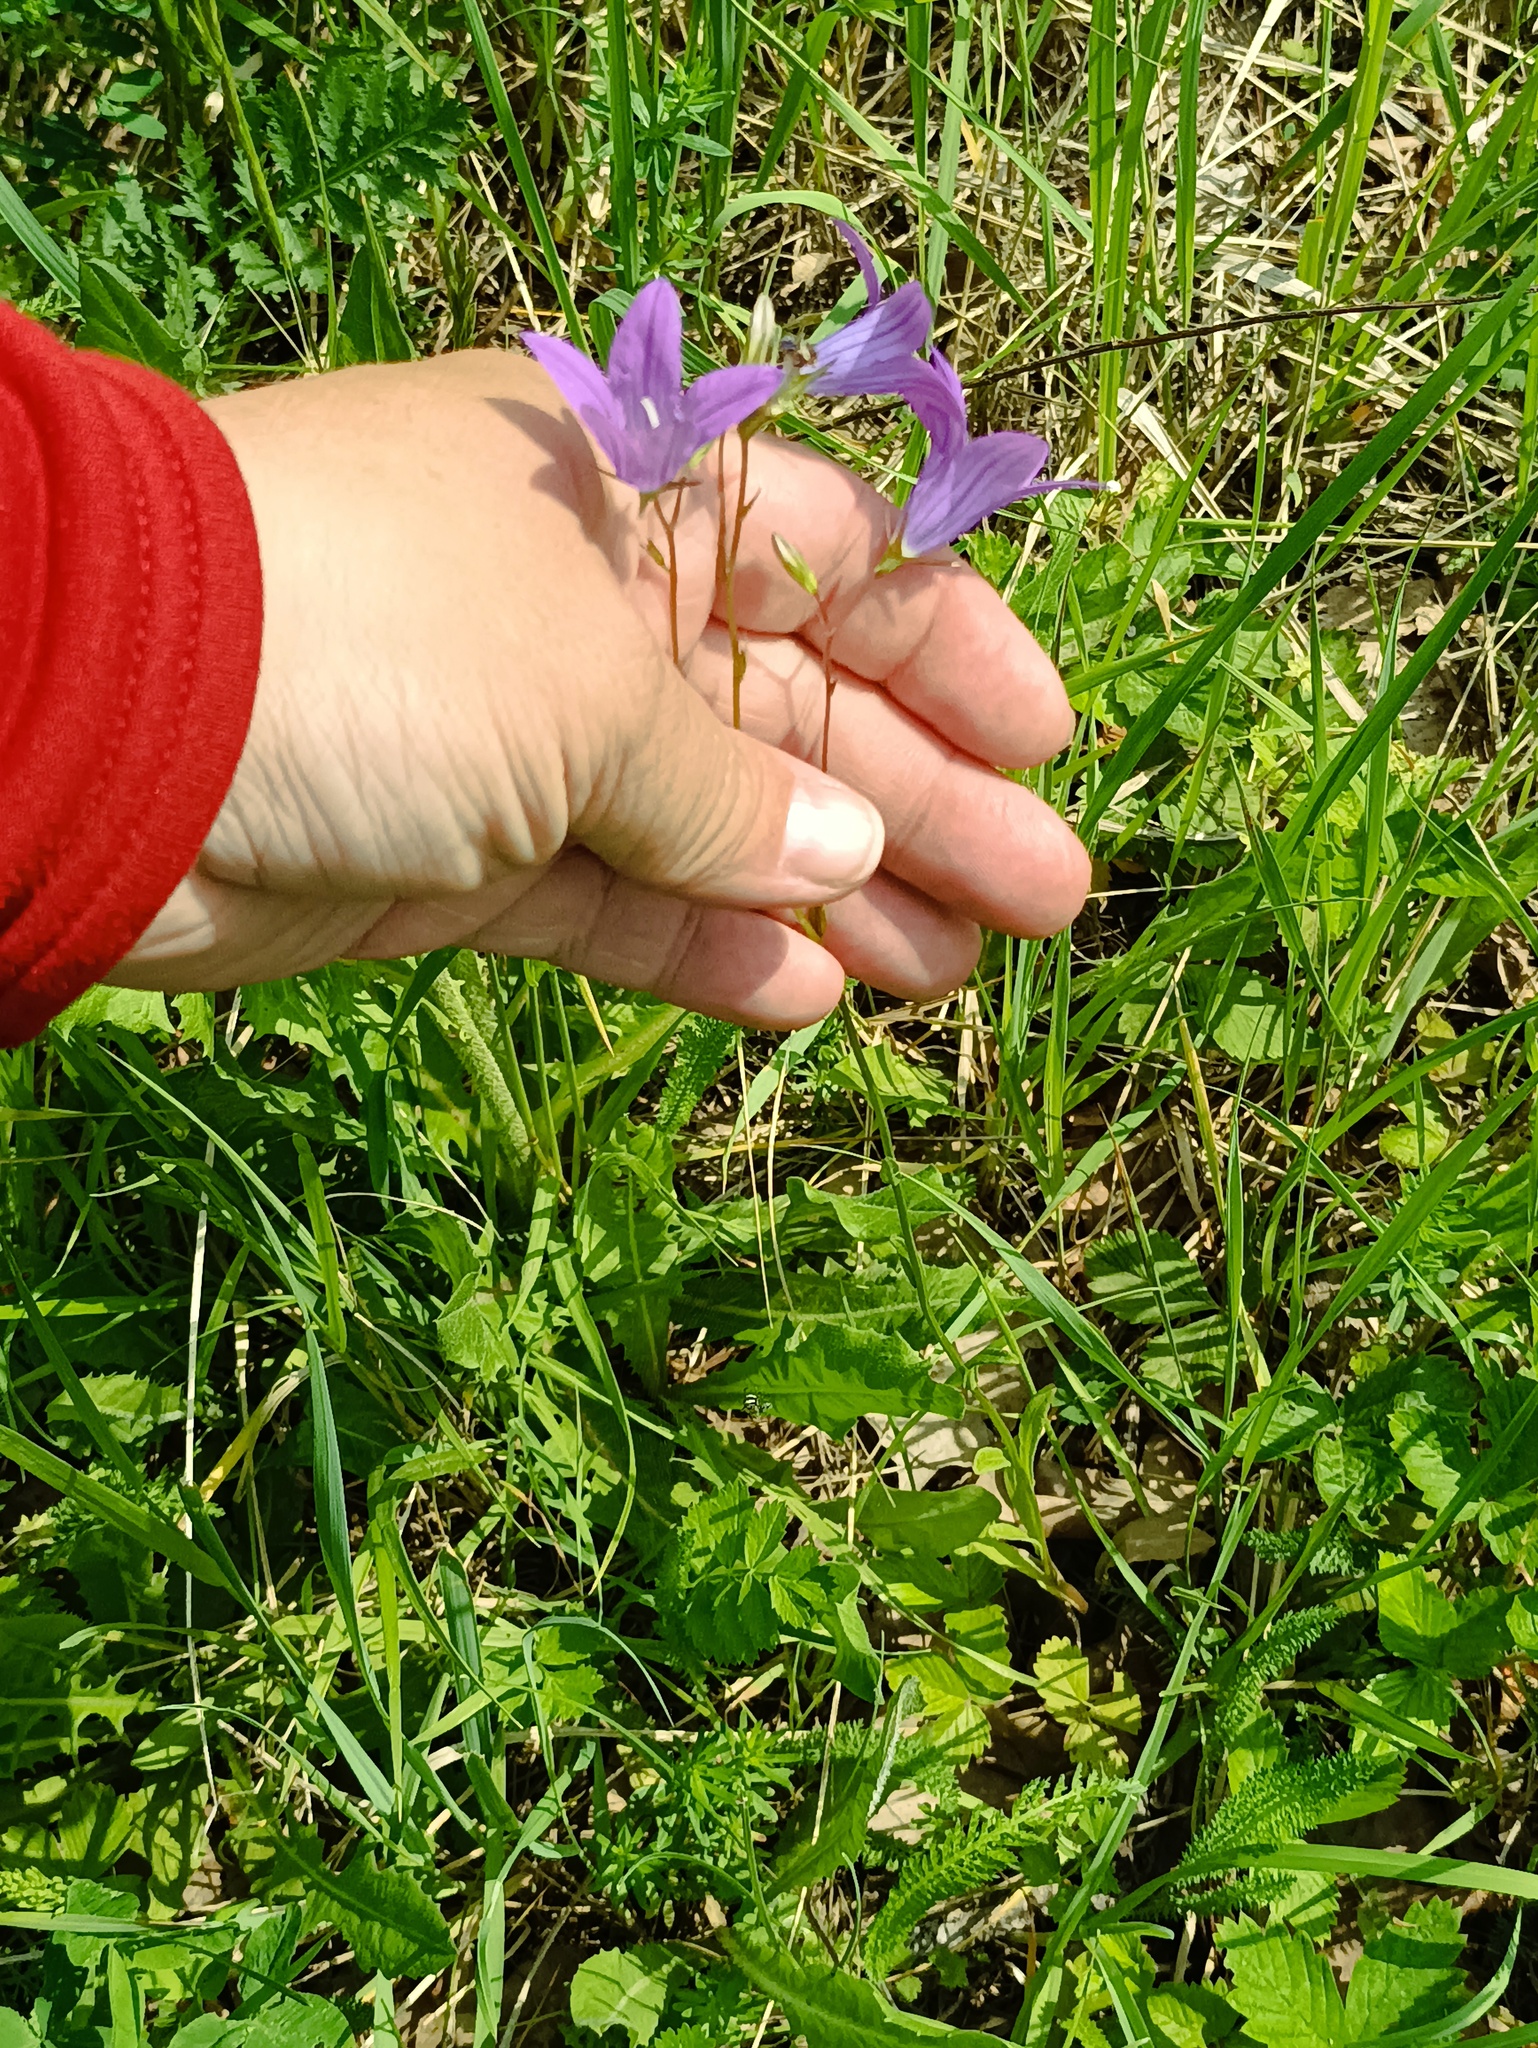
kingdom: Plantae
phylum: Tracheophyta
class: Magnoliopsida
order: Asterales
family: Campanulaceae
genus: Campanula
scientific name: Campanula patula
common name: Spreading bellflower
